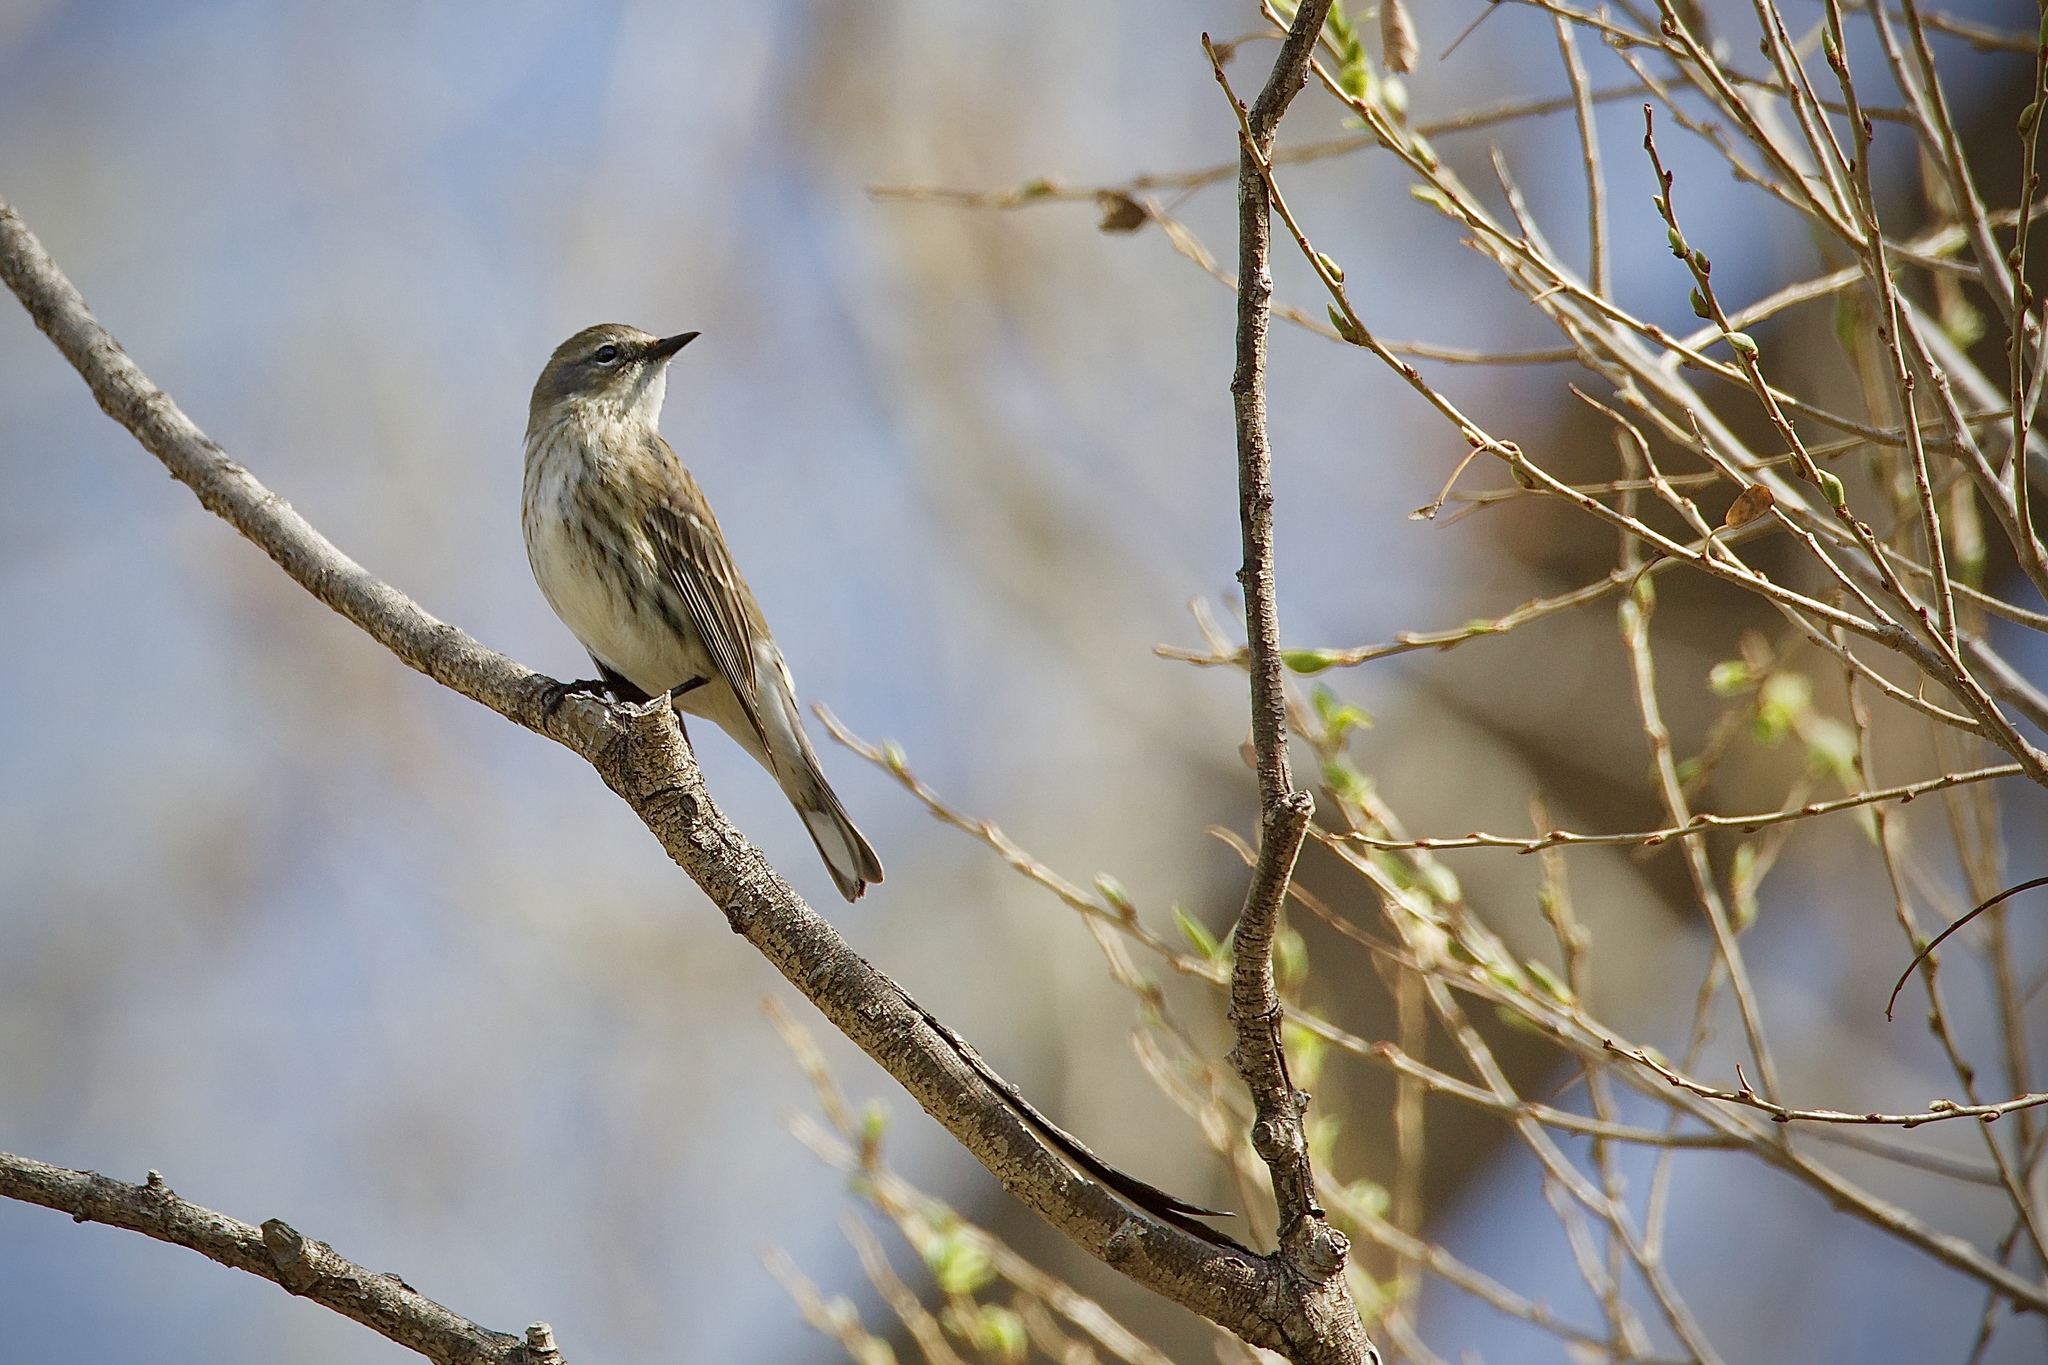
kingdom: Animalia
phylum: Chordata
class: Aves
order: Passeriformes
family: Parulidae
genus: Setophaga
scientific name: Setophaga coronata
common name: Myrtle warbler
